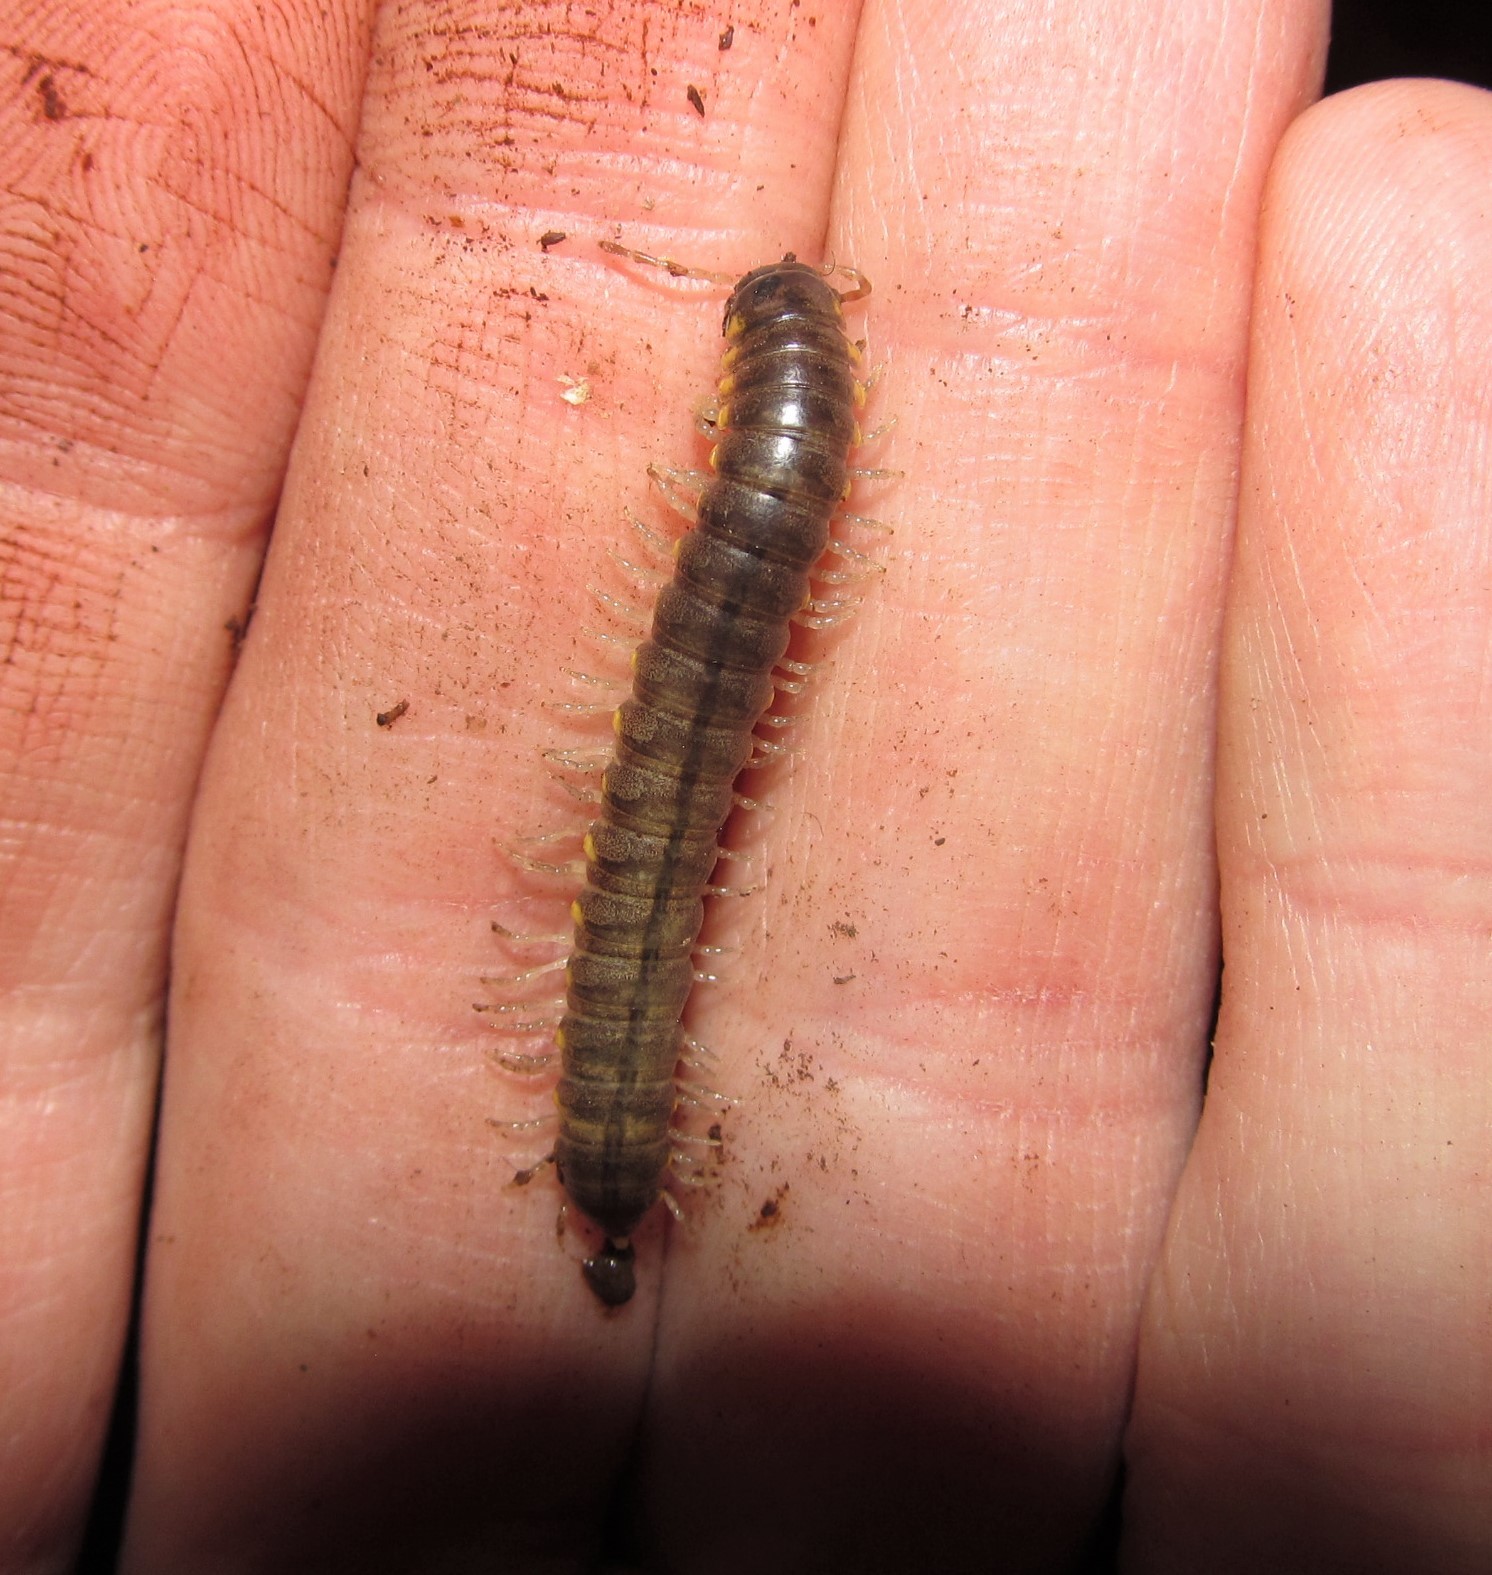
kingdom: Animalia
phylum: Arthropoda
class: Diplopoda
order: Polydesmida
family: Xystodesmidae
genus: Tubaphe
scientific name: Tubaphe levii
